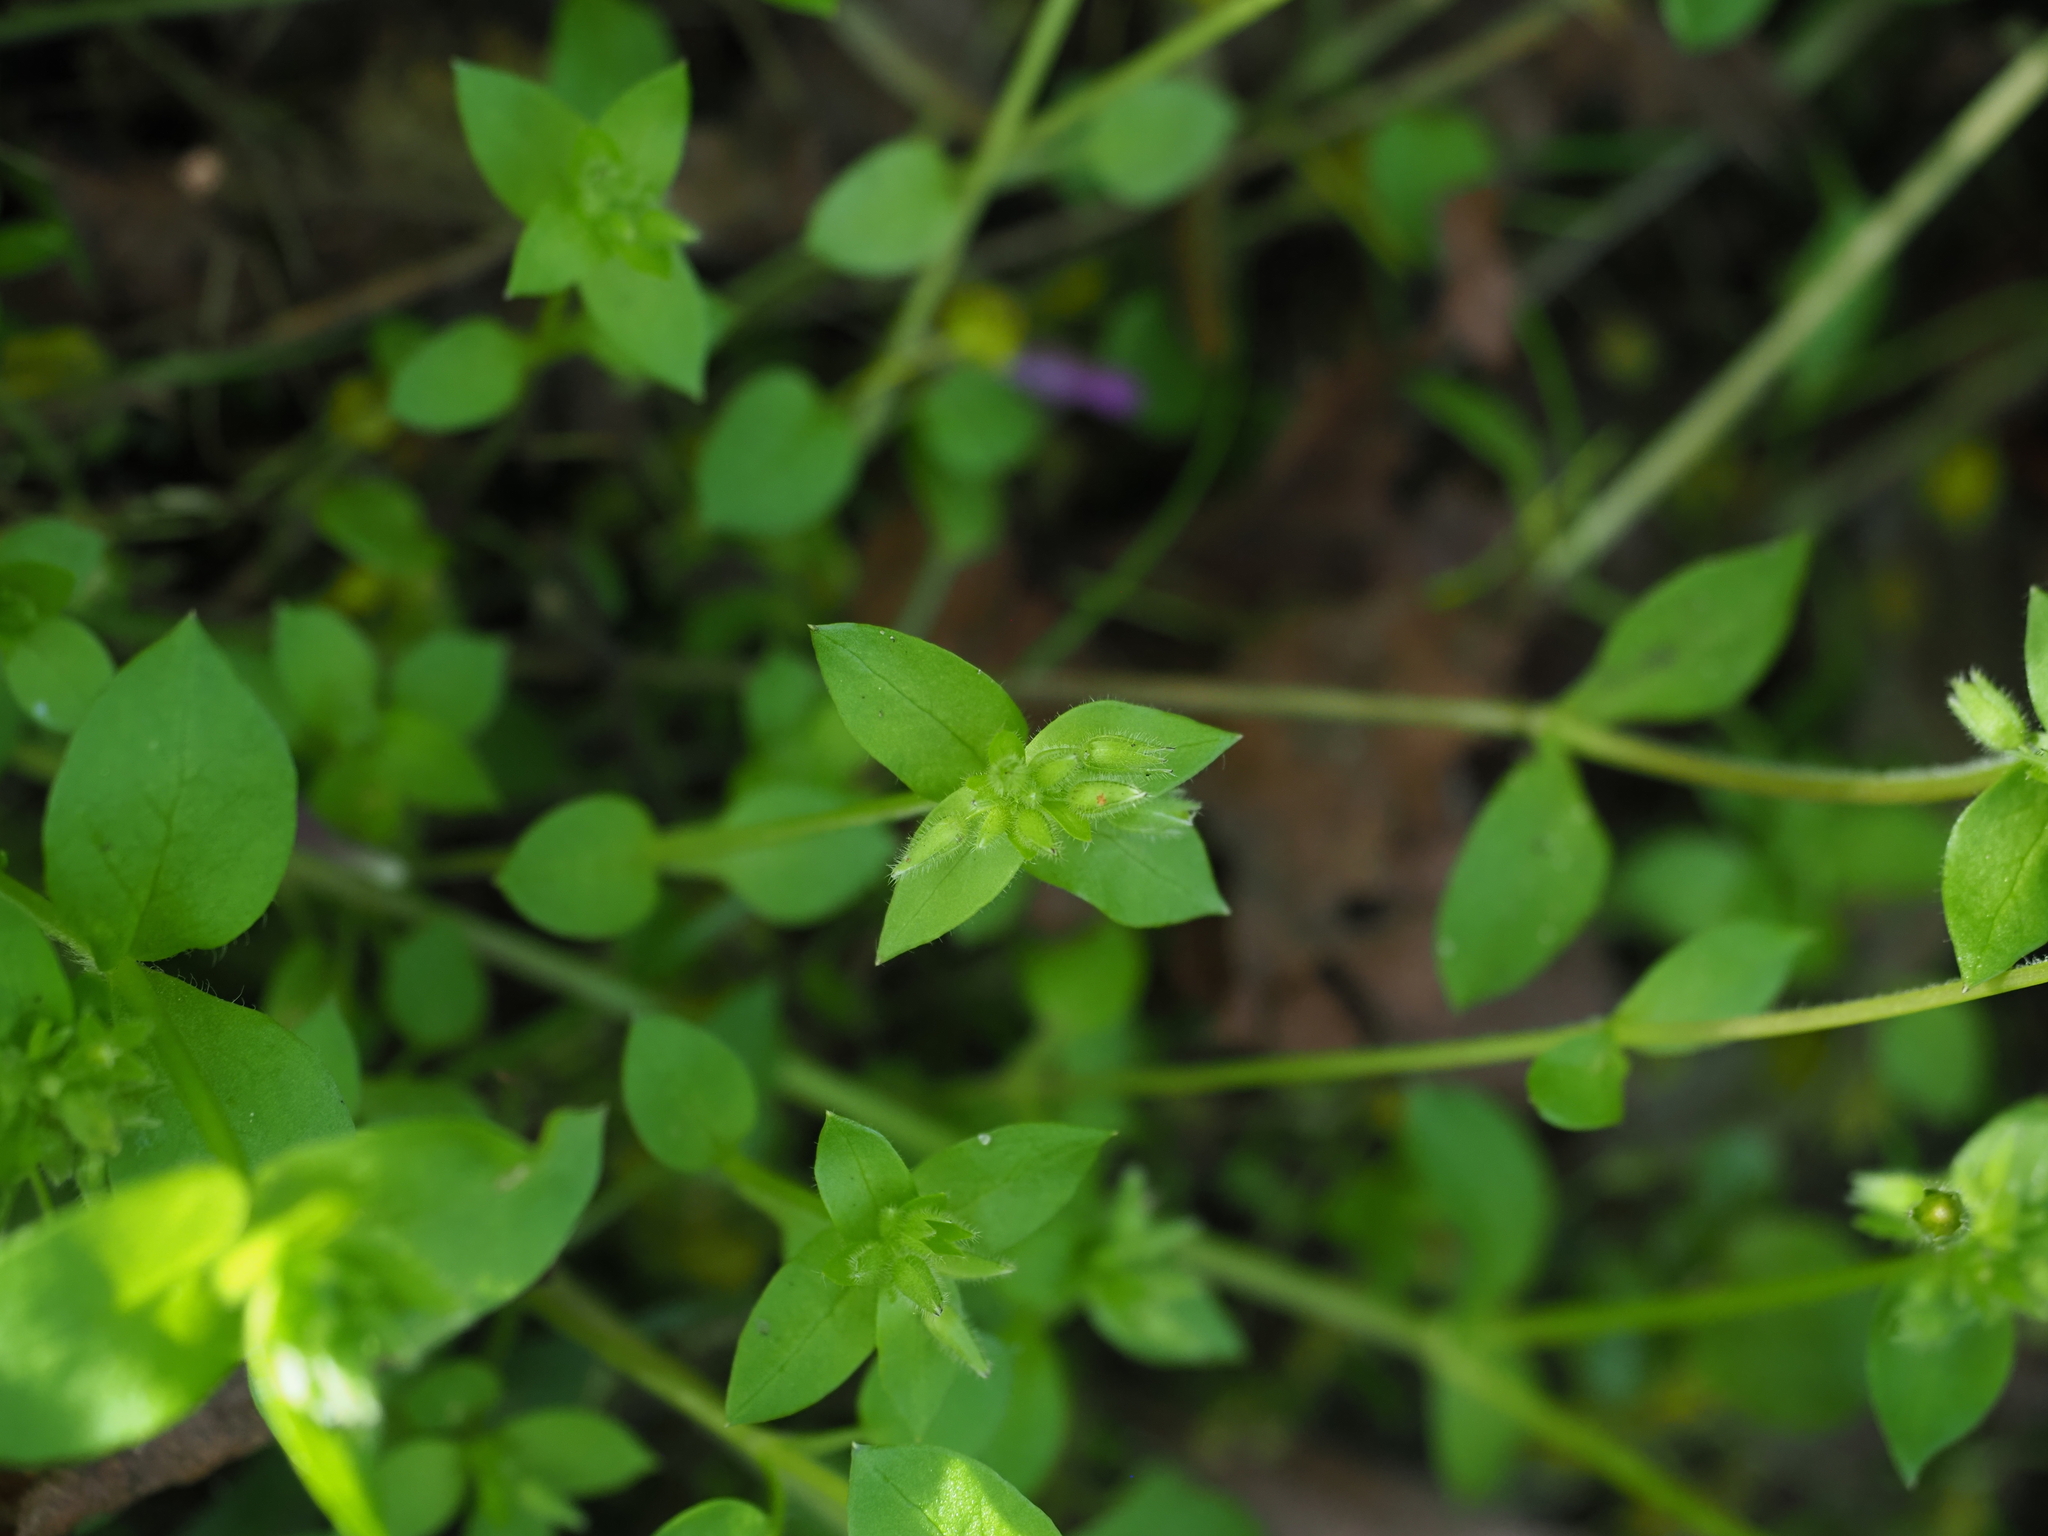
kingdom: Plantae
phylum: Tracheophyta
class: Magnoliopsida
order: Caryophyllales
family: Caryophyllaceae
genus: Stellaria
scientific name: Stellaria media
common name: Common chickweed
